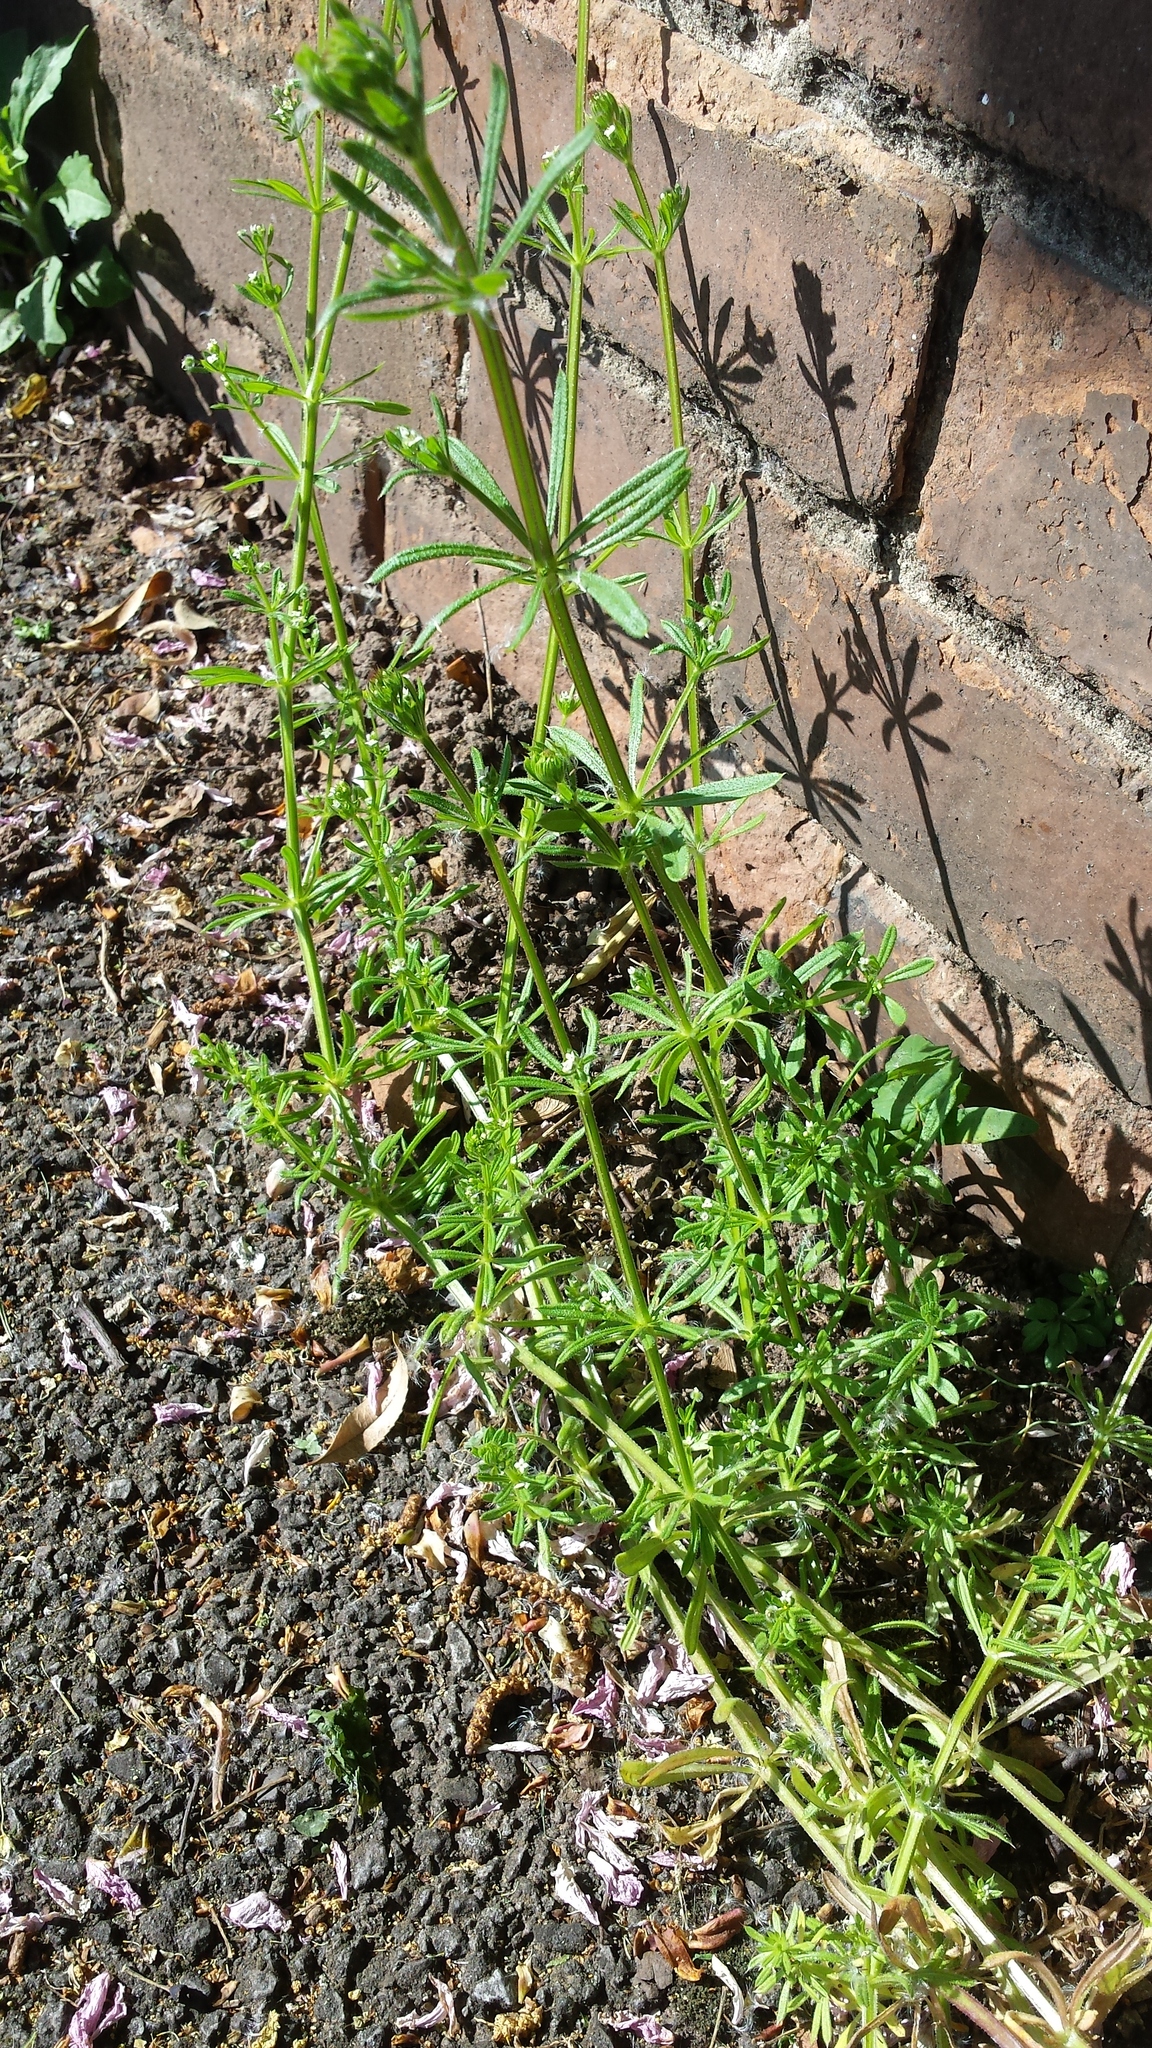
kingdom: Plantae
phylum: Tracheophyta
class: Magnoliopsida
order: Gentianales
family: Rubiaceae
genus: Galium
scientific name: Galium aparine
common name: Cleavers
